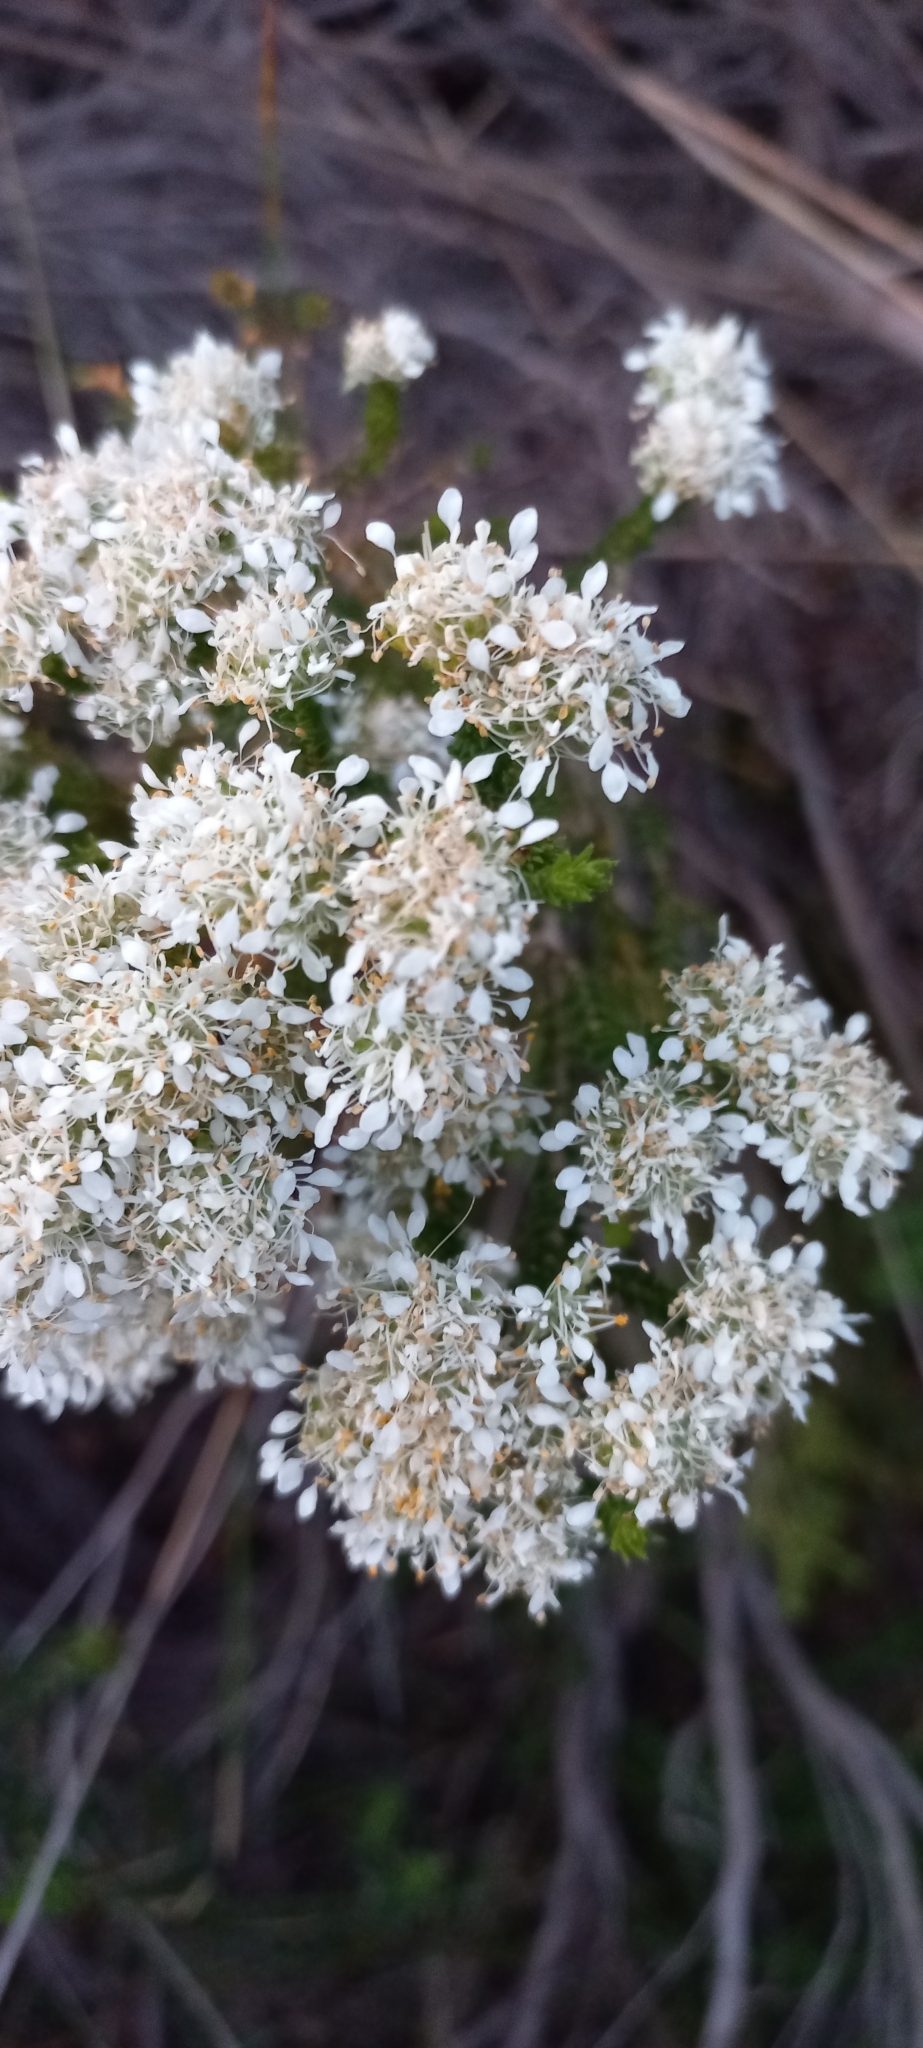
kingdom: Plantae
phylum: Tracheophyta
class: Magnoliopsida
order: Sapindales
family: Rutaceae
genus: Agathosma
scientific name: Agathosma imbricata
